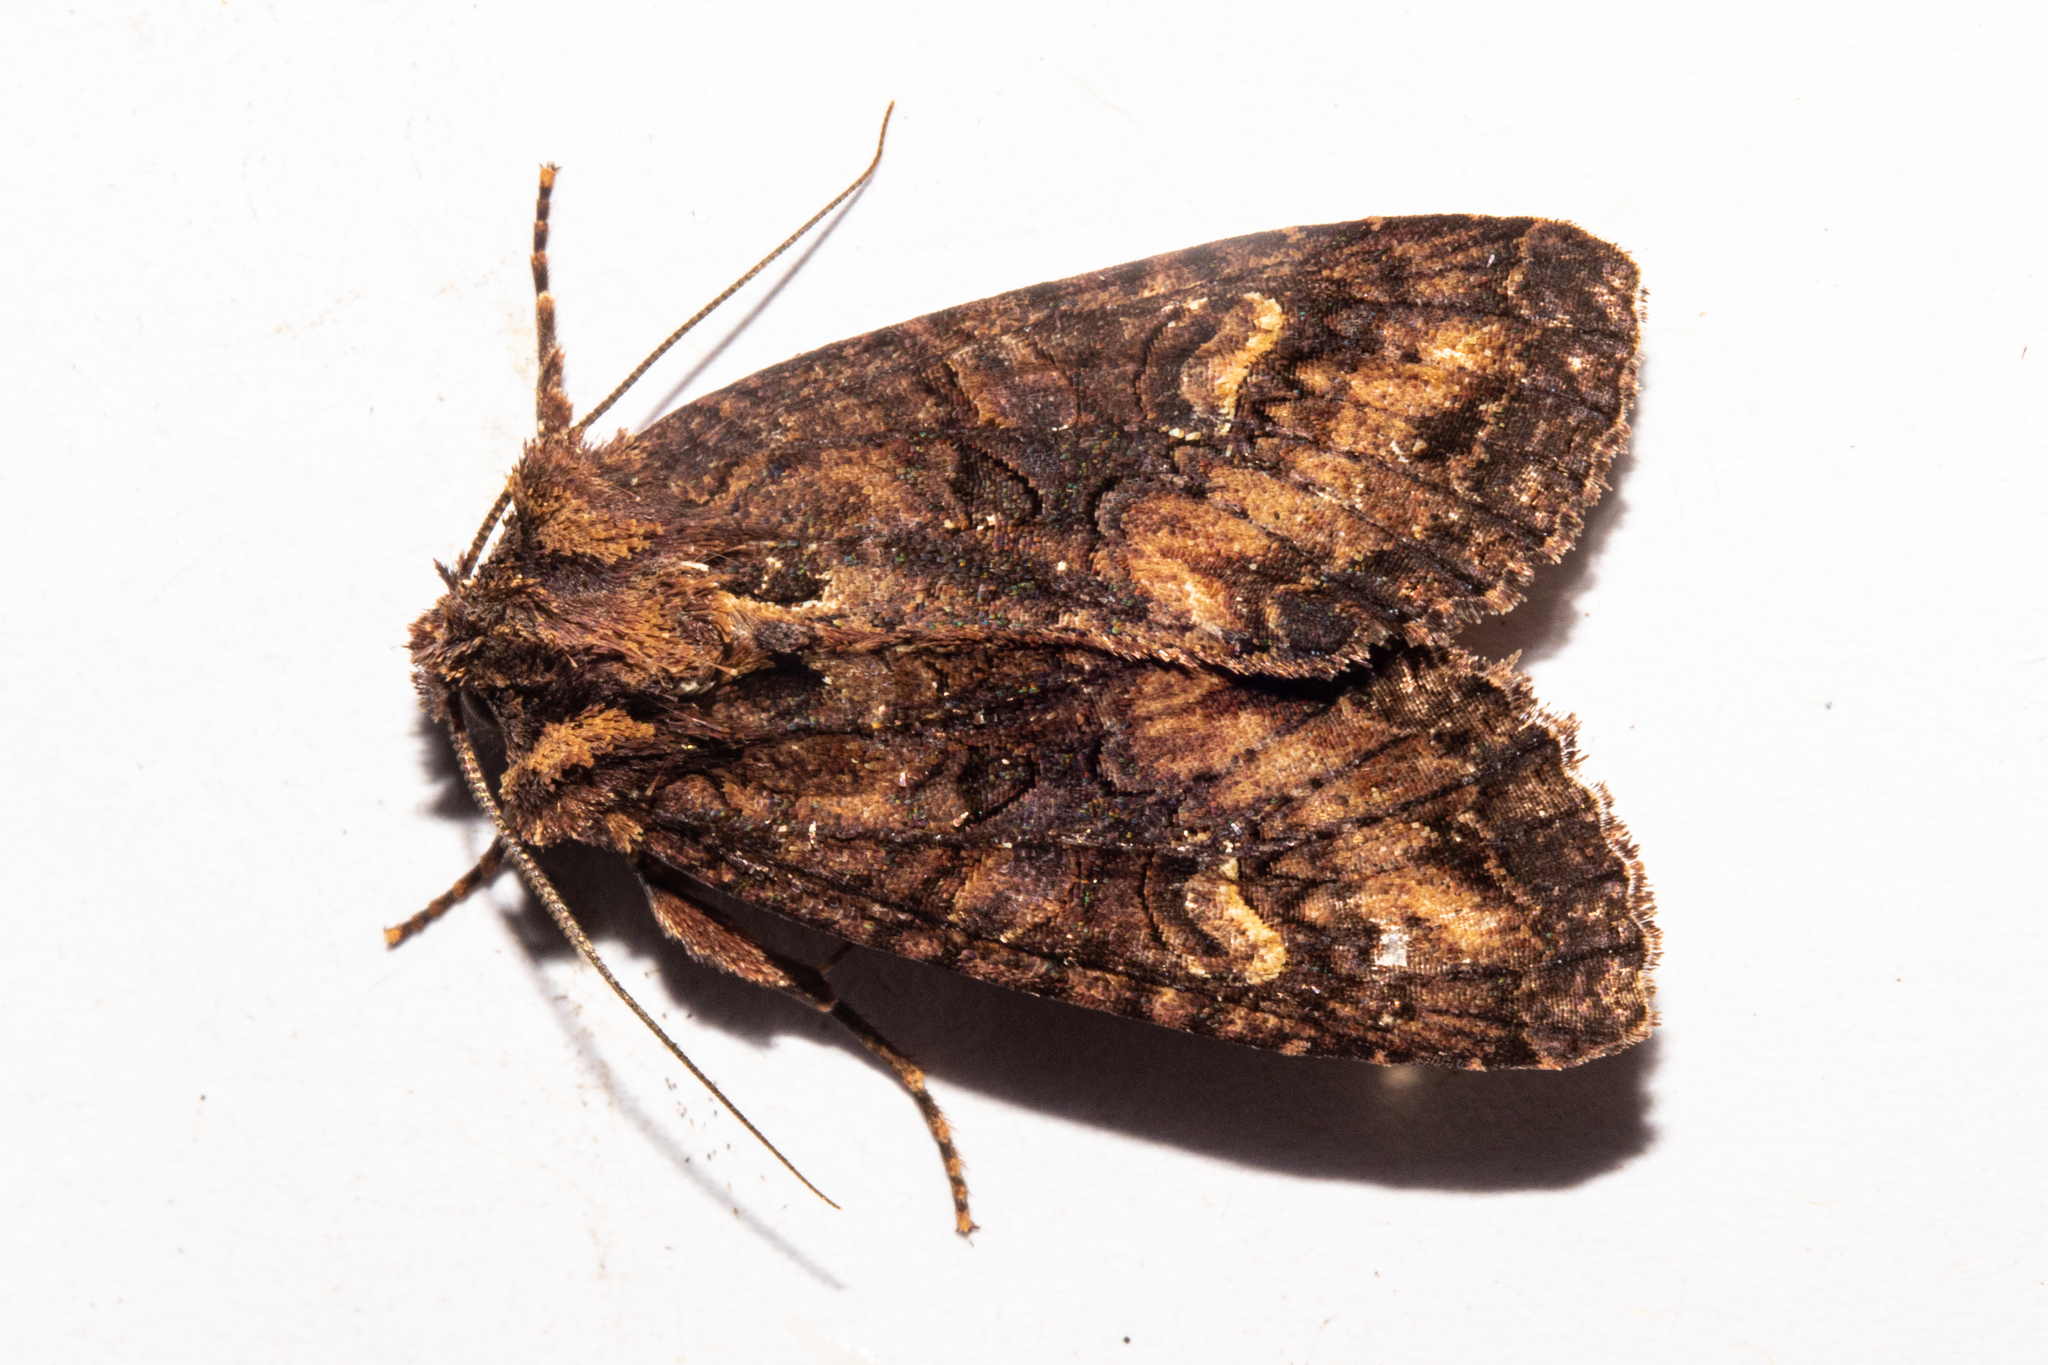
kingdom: Animalia
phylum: Arthropoda
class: Insecta
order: Lepidoptera
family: Noctuidae
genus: Meterana
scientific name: Meterana dotata
